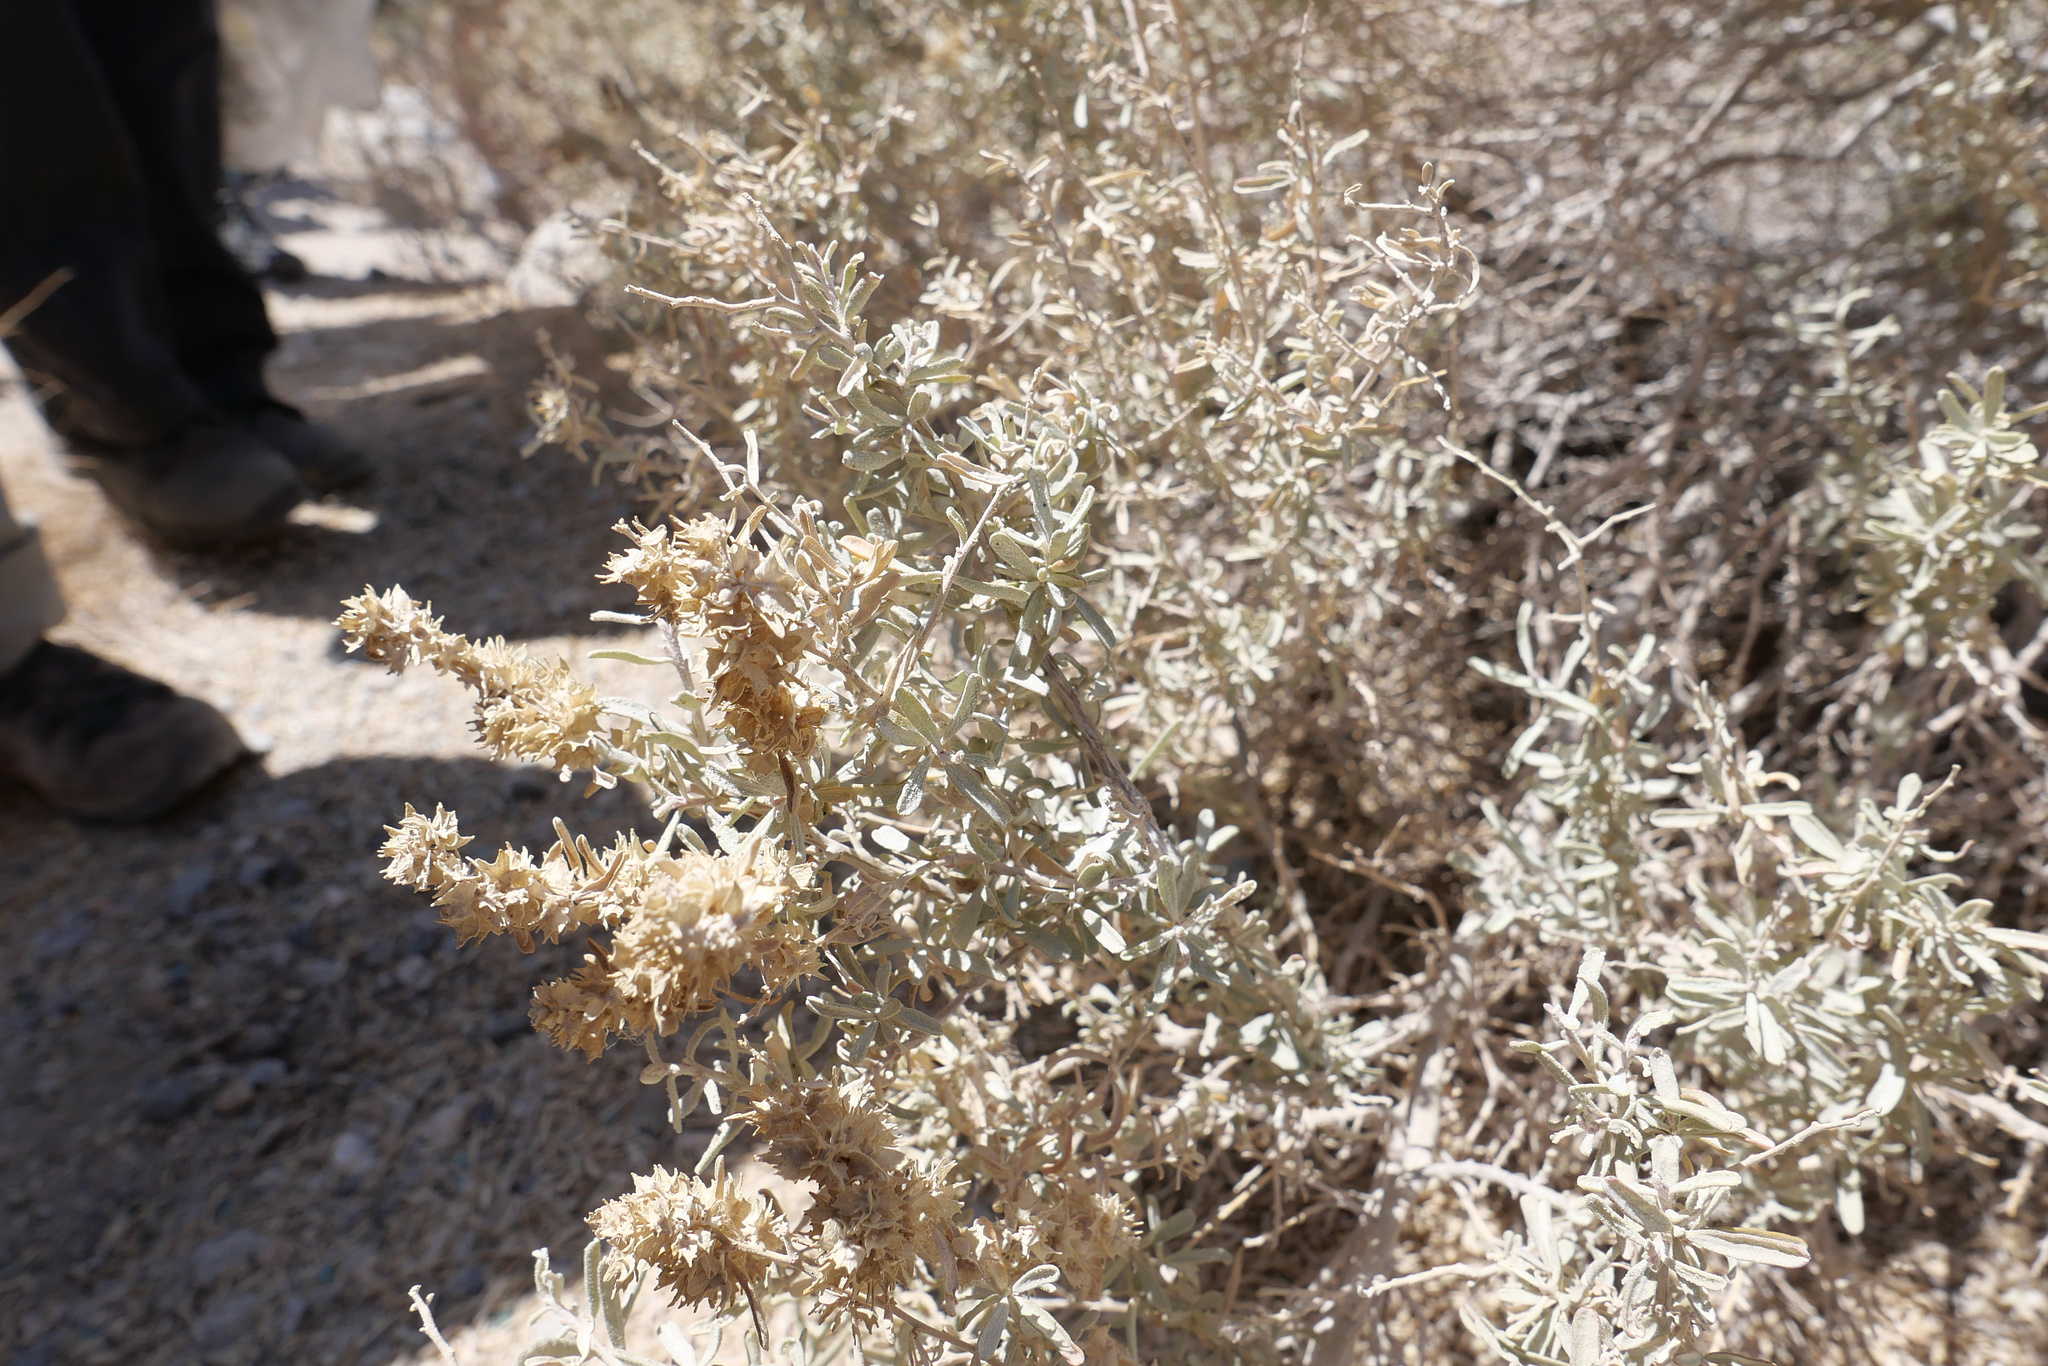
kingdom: Plantae
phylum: Tracheophyta
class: Magnoliopsida
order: Caryophyllales
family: Amaranthaceae
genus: Atriplex
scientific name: Atriplex canescens
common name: Four-wing saltbush
